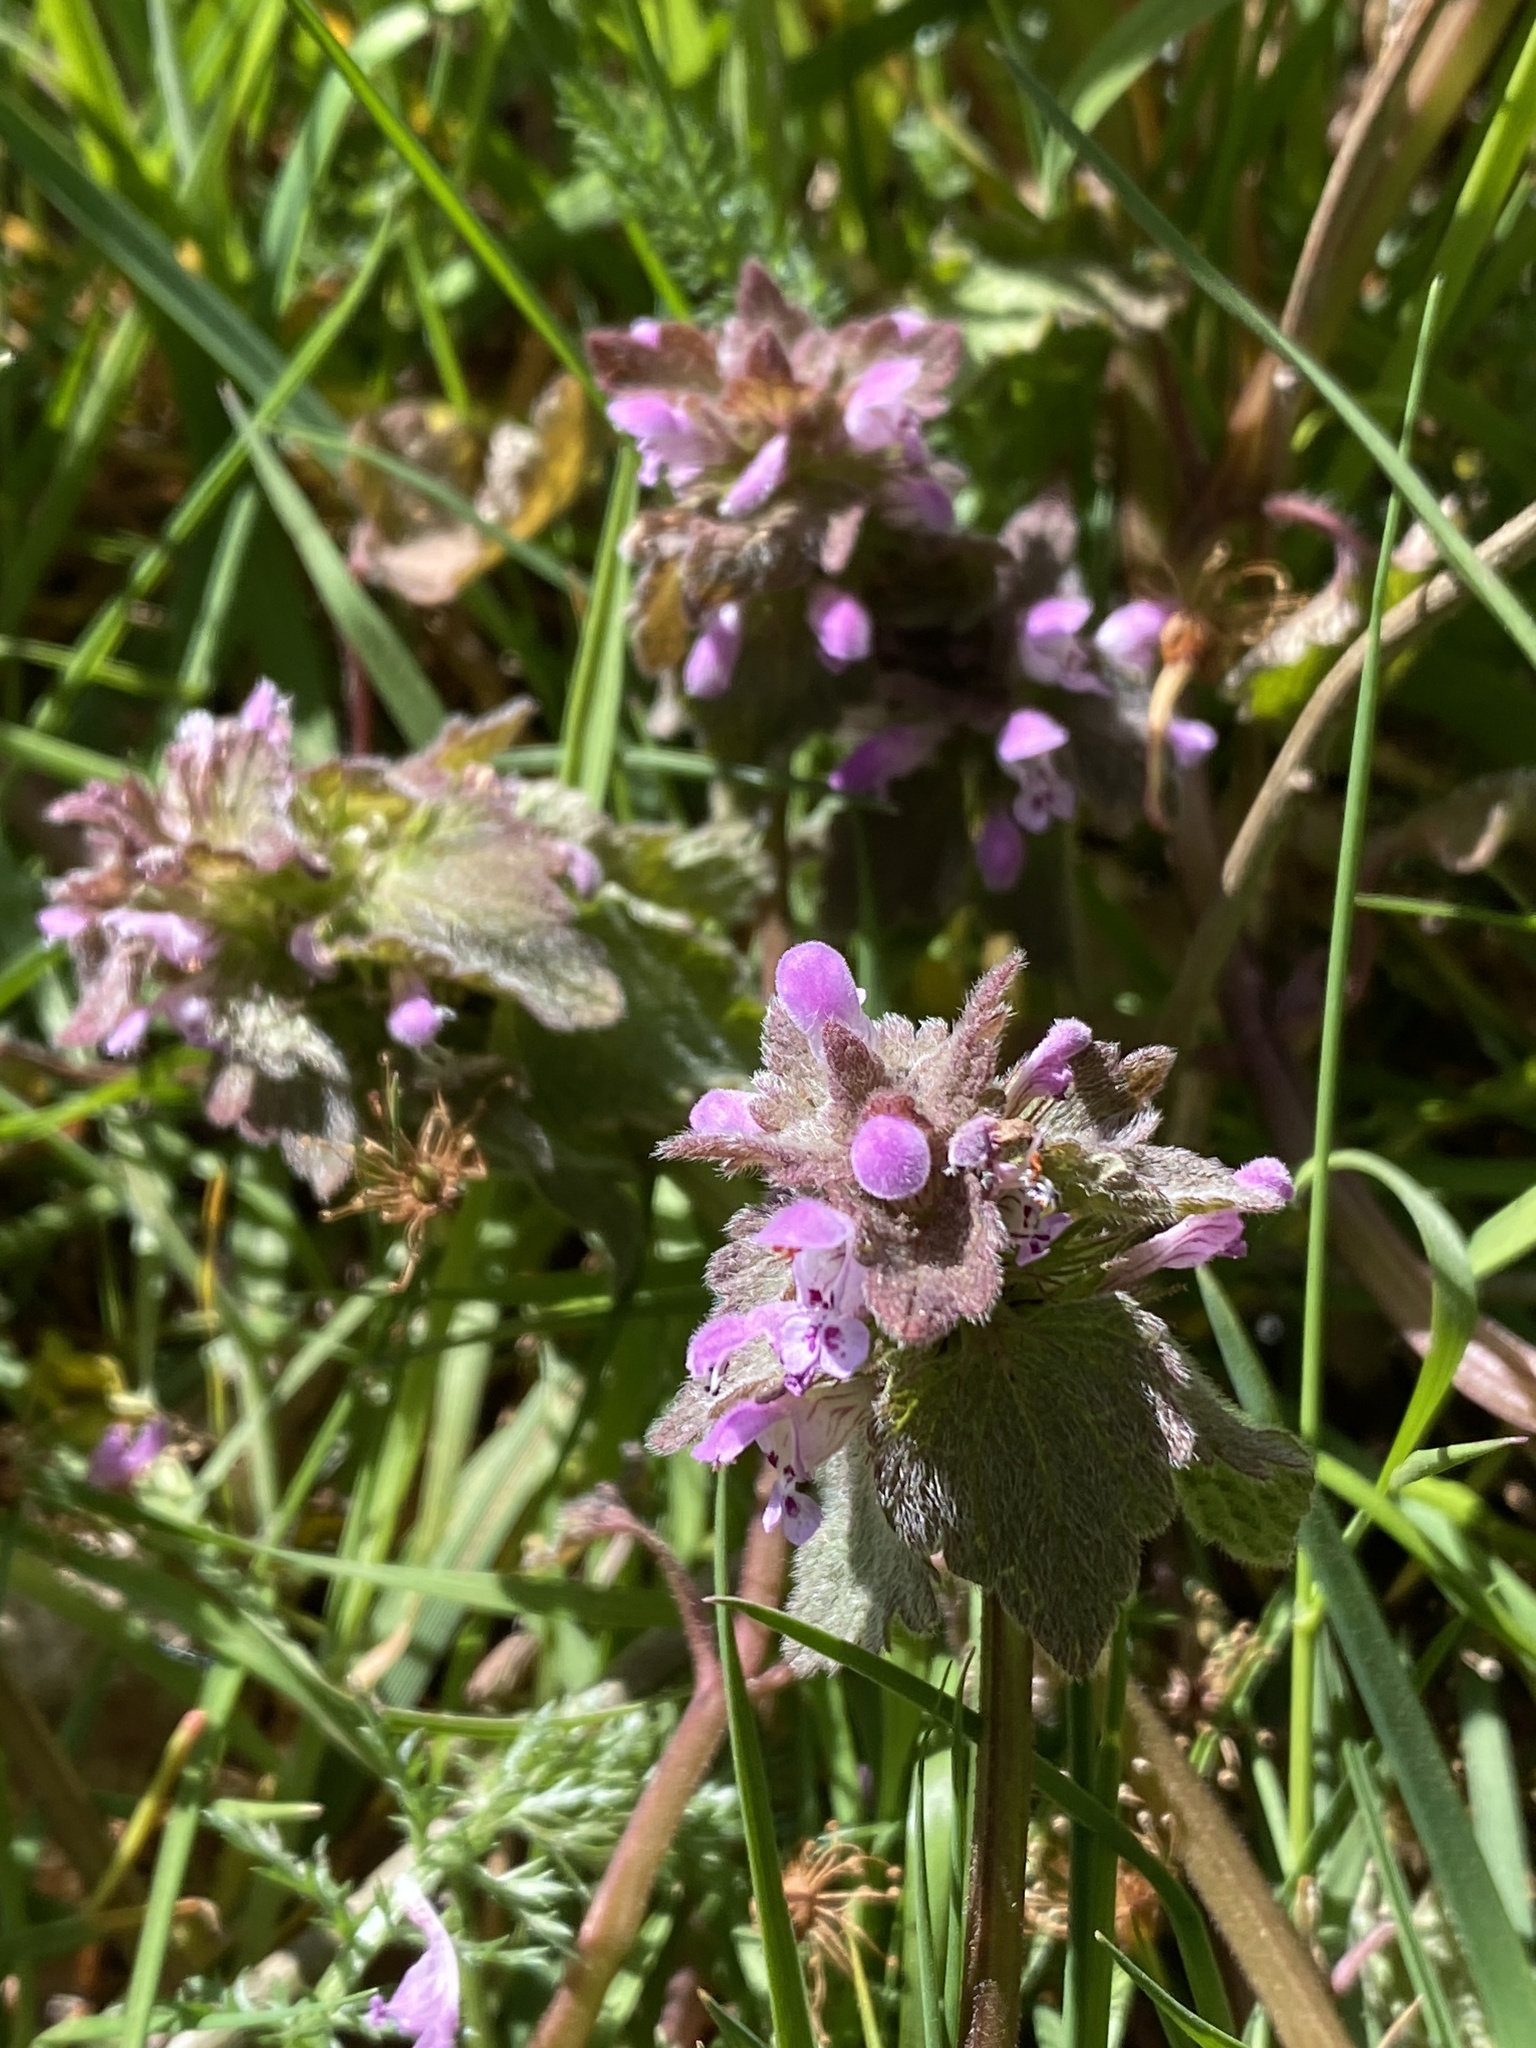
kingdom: Plantae
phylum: Tracheophyta
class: Magnoliopsida
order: Lamiales
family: Lamiaceae
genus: Lamium
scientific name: Lamium purpureum
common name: Red dead-nettle
